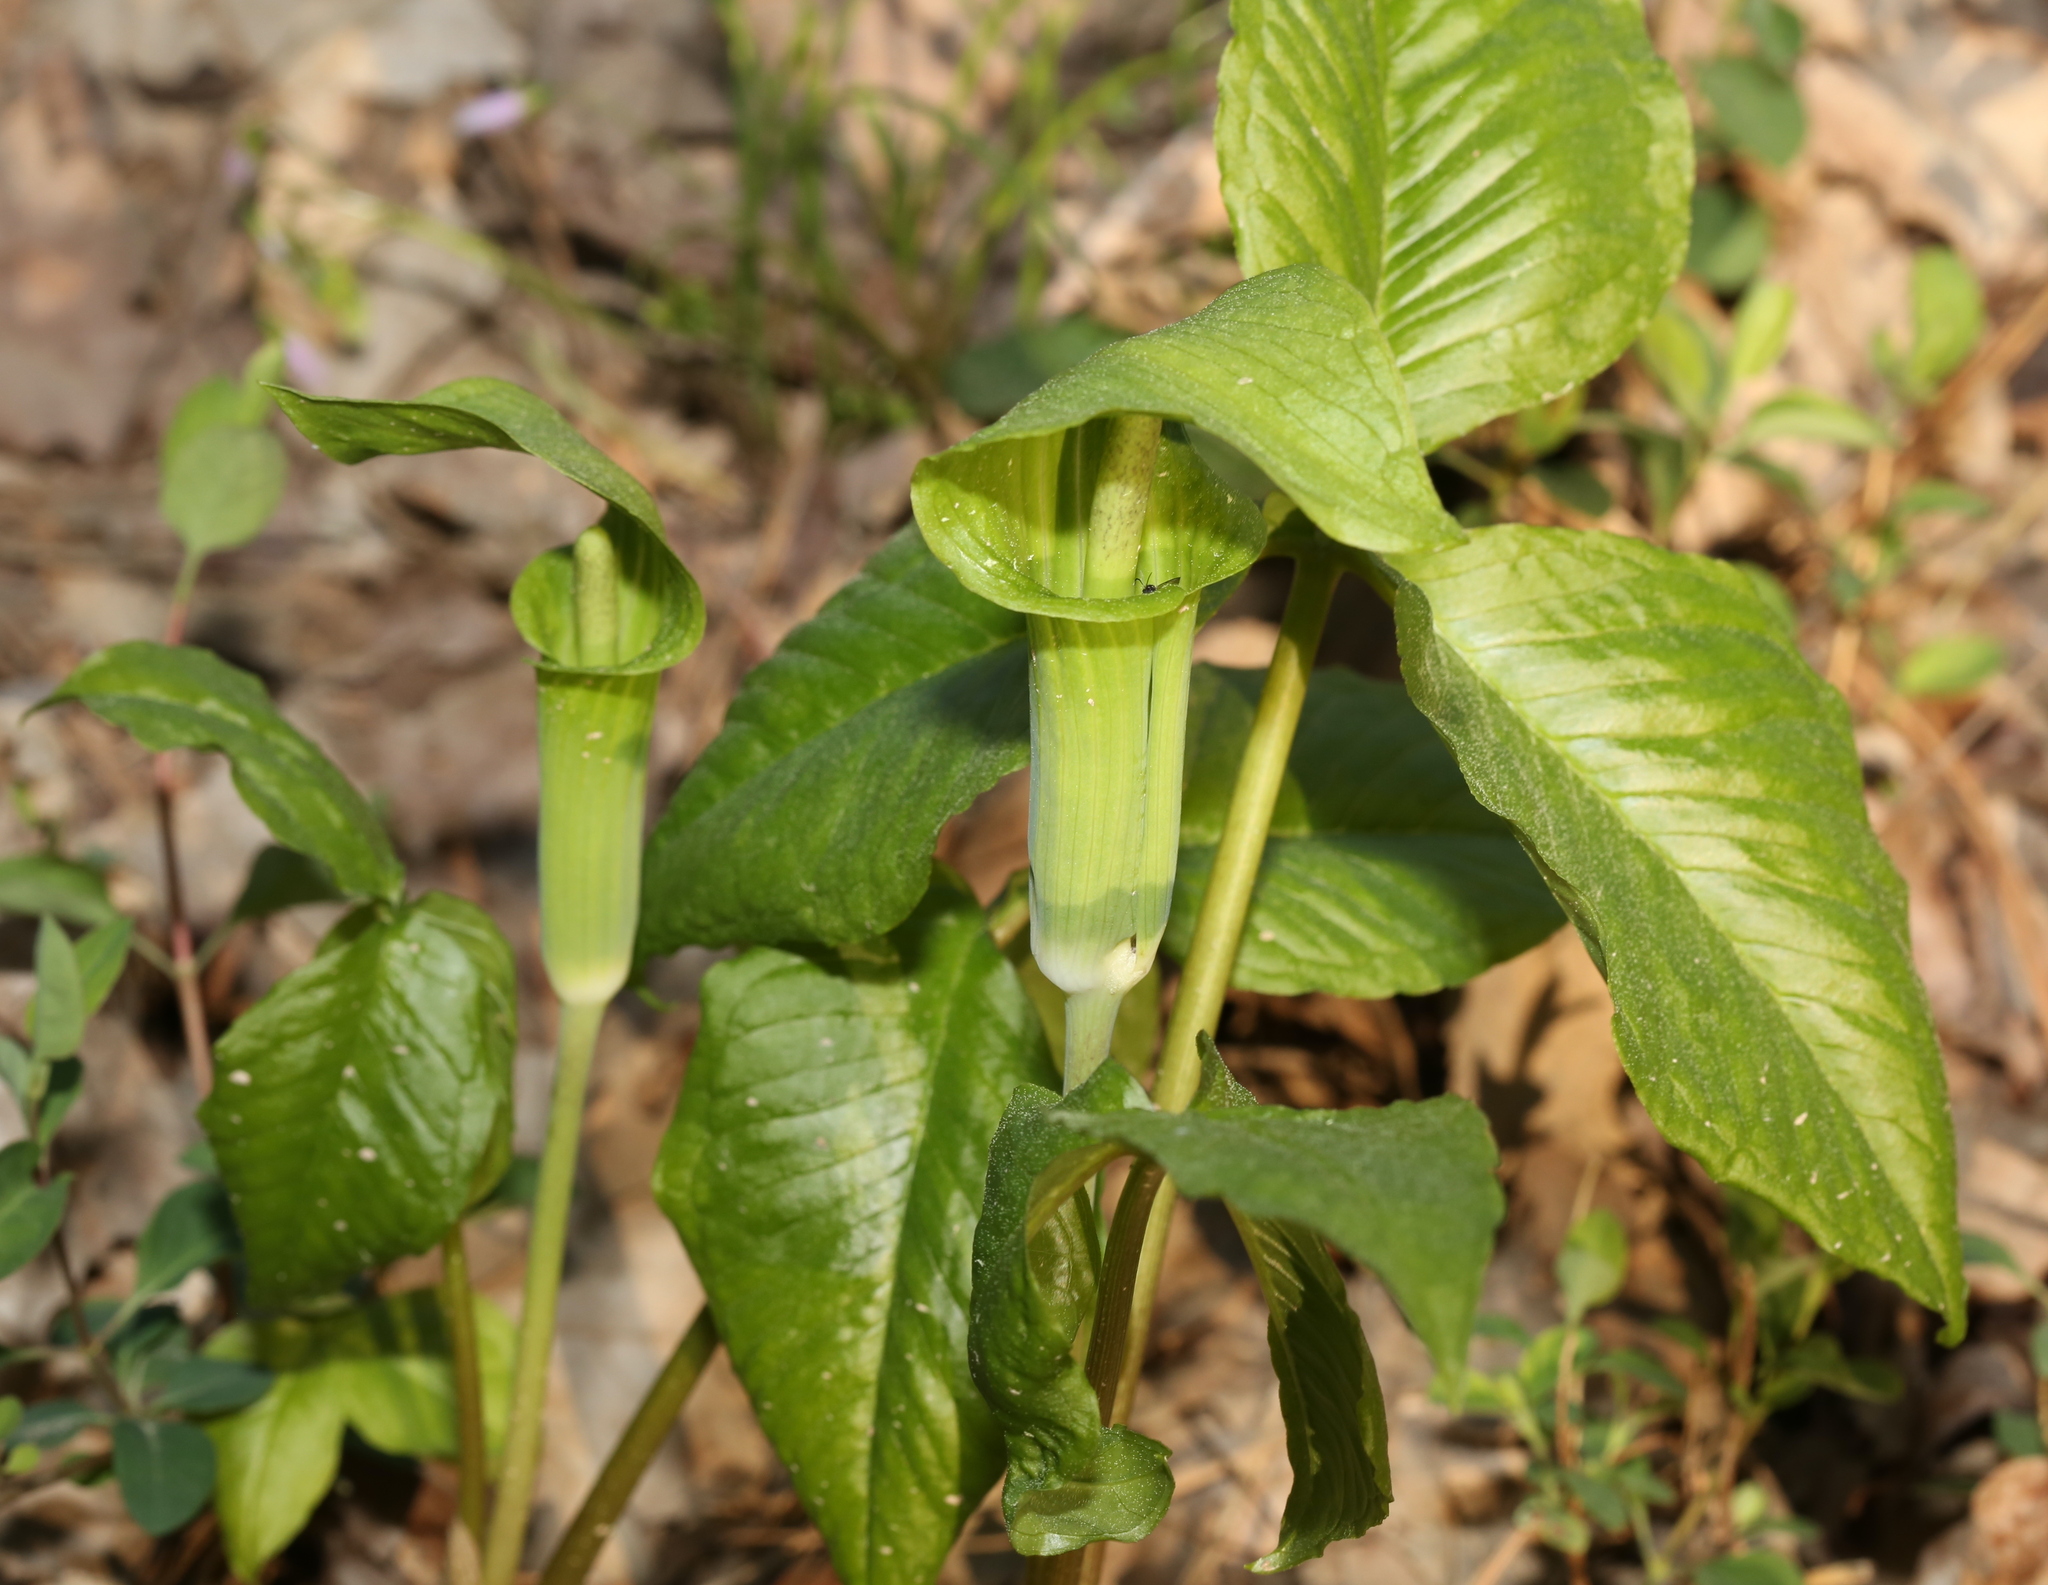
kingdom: Plantae
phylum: Tracheophyta
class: Liliopsida
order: Alismatales
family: Araceae
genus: Arisaema
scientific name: Arisaema triphyllum
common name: Jack-in-the-pulpit
